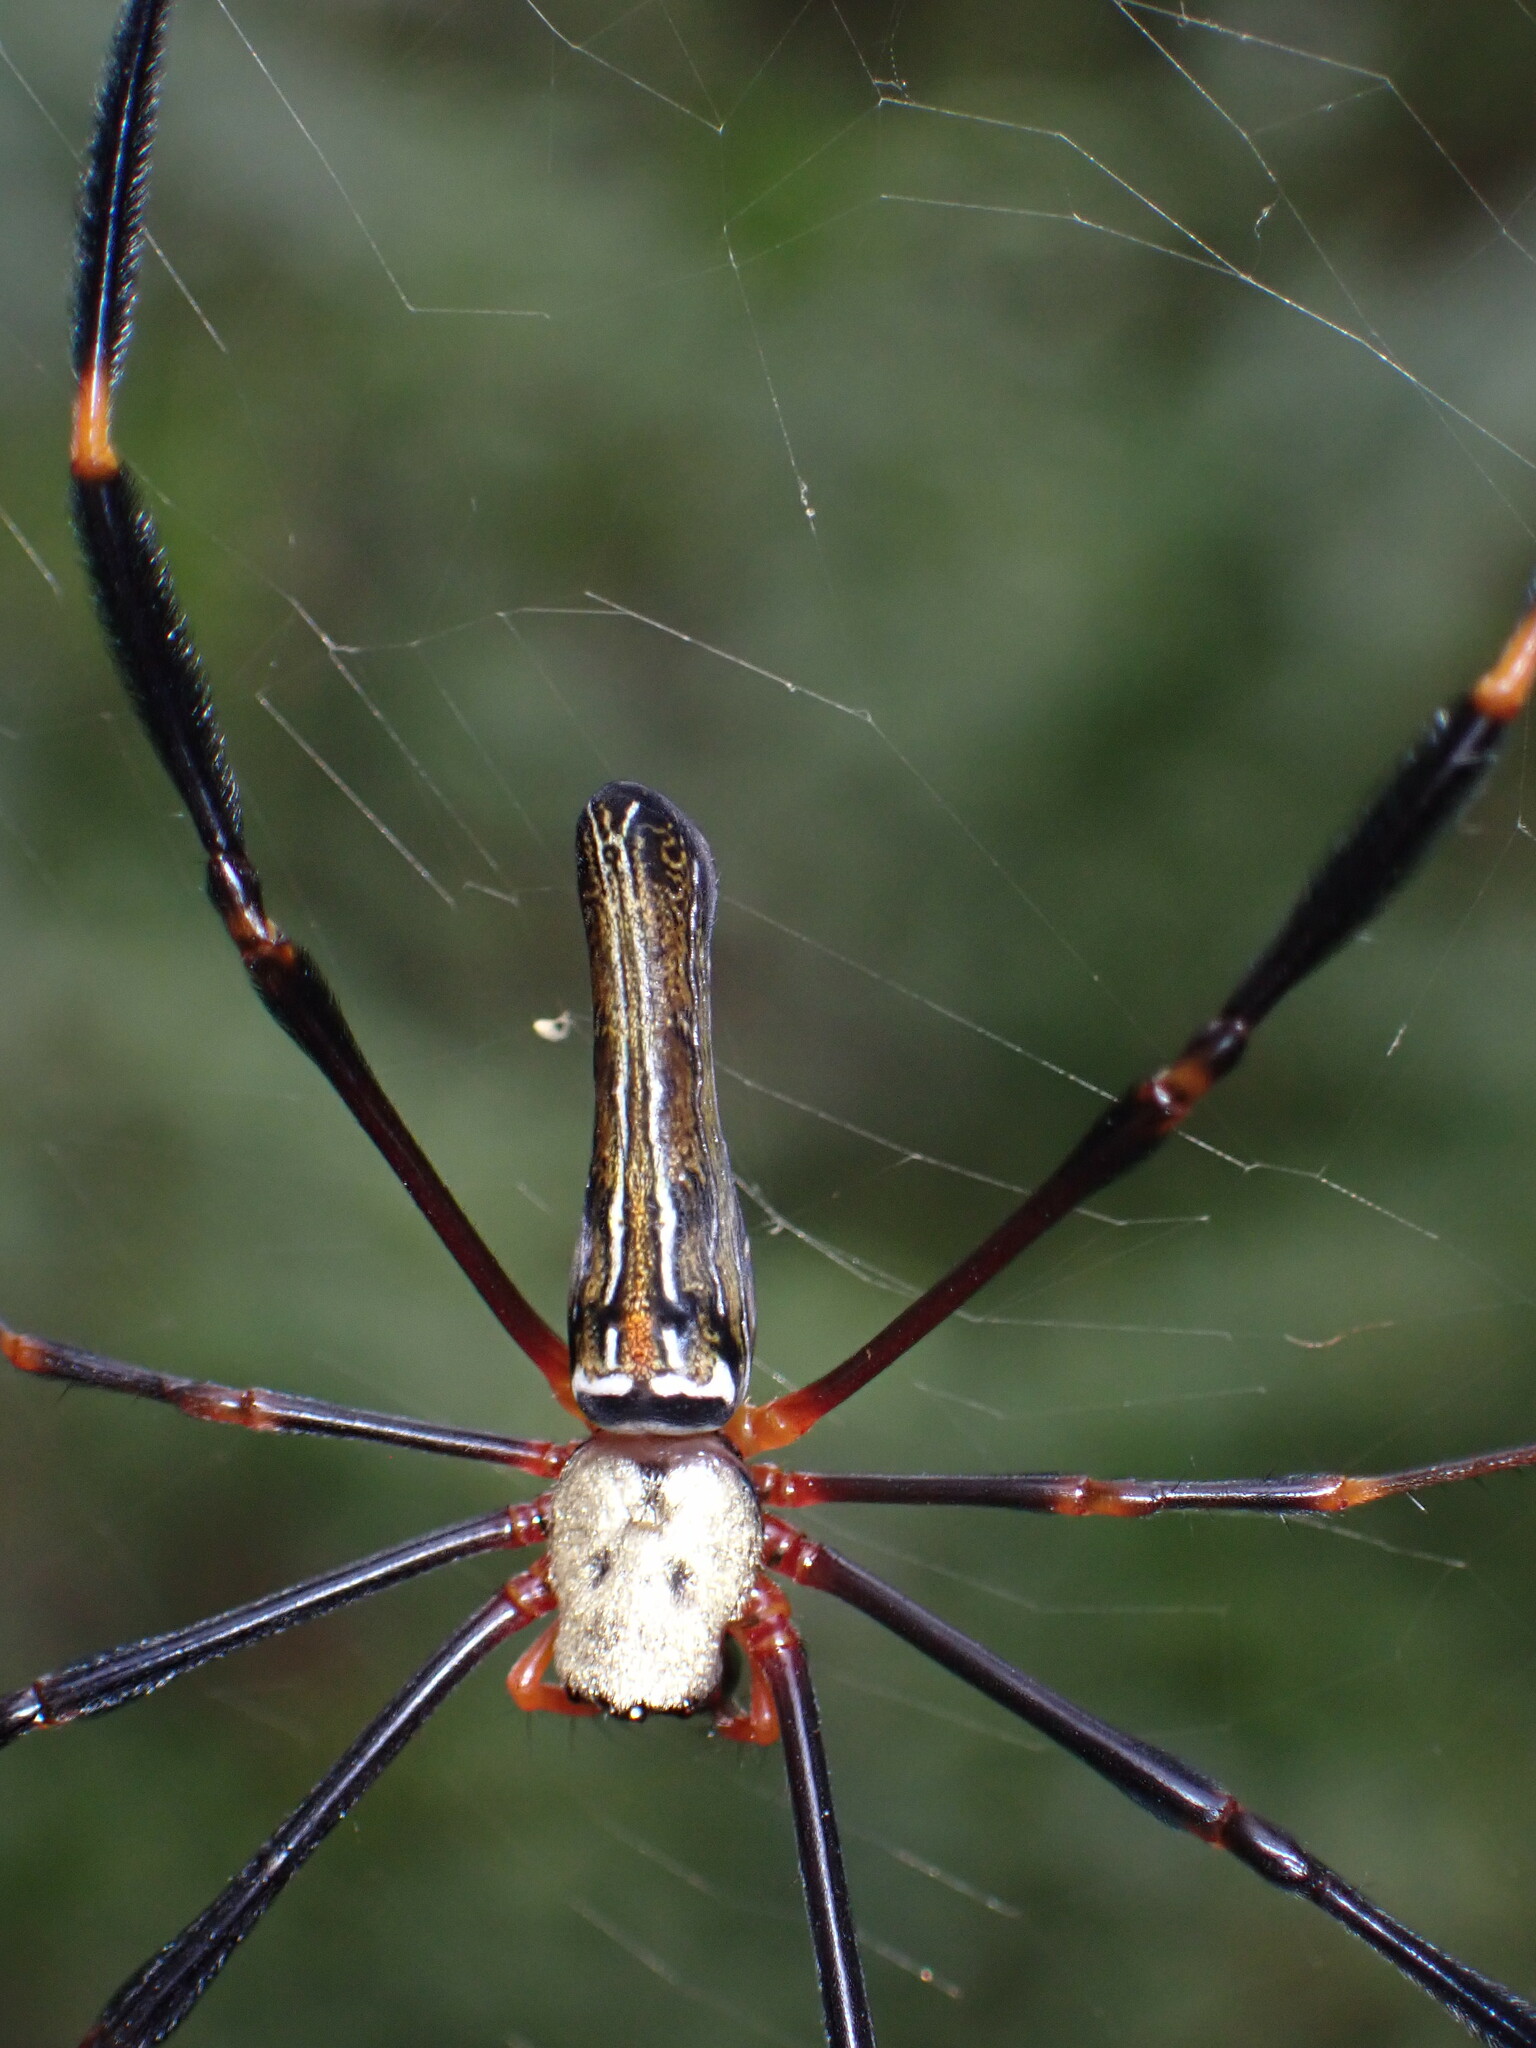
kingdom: Animalia
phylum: Arthropoda
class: Arachnida
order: Araneae
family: Araneidae
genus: Nephila
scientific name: Nephila pilipes
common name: Giant golden orb weaver
